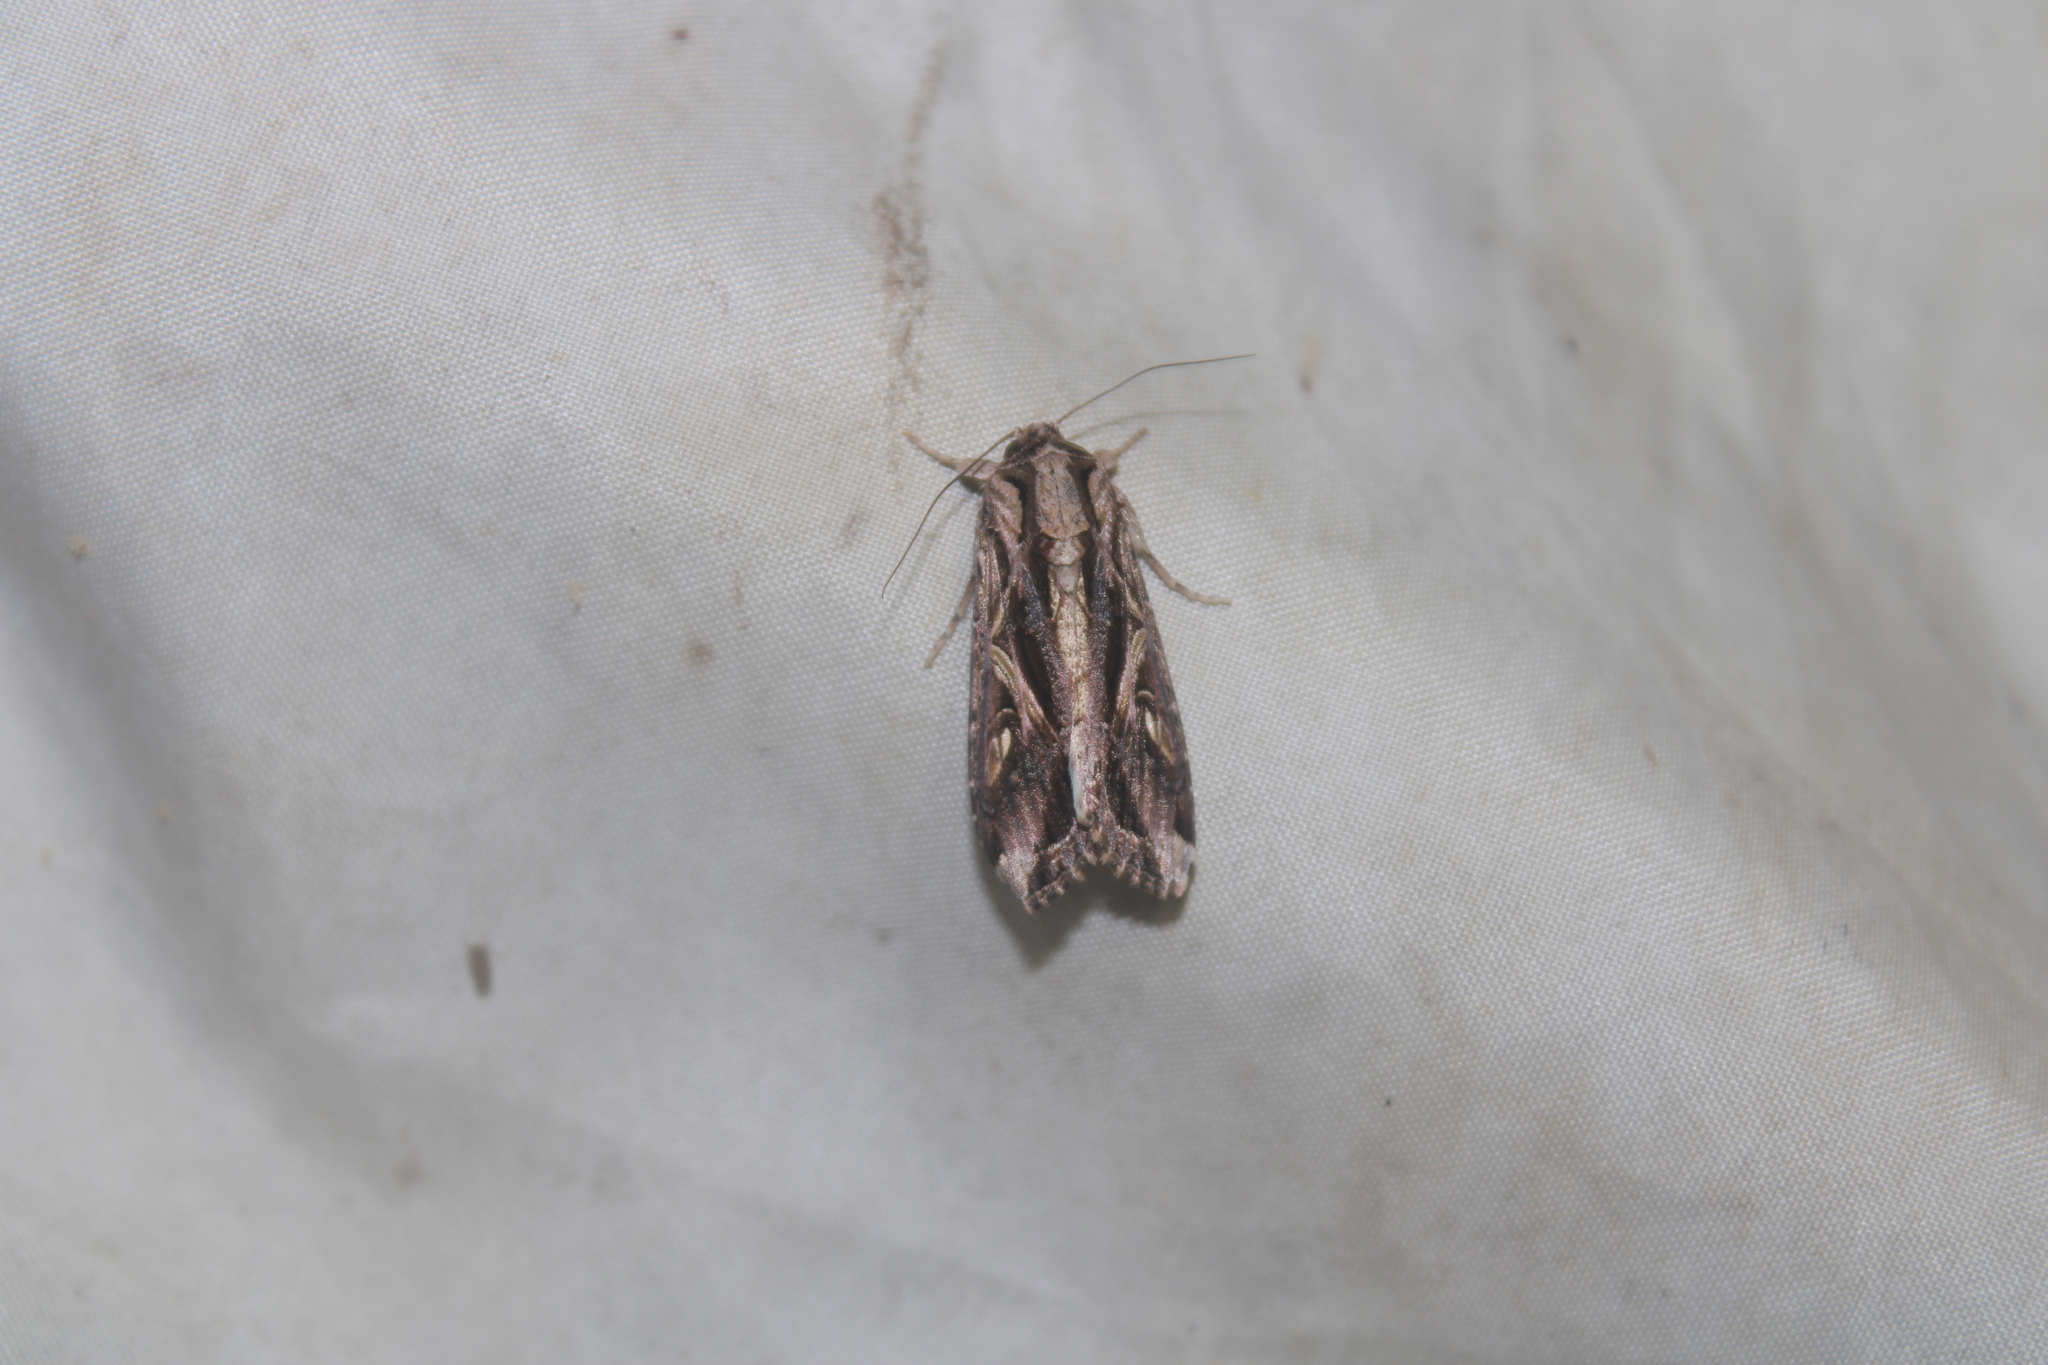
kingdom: Animalia
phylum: Arthropoda
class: Insecta
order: Lepidoptera
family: Noctuidae
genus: Spodoptera
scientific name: Spodoptera dolichos
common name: Sweetpotato armyworm
